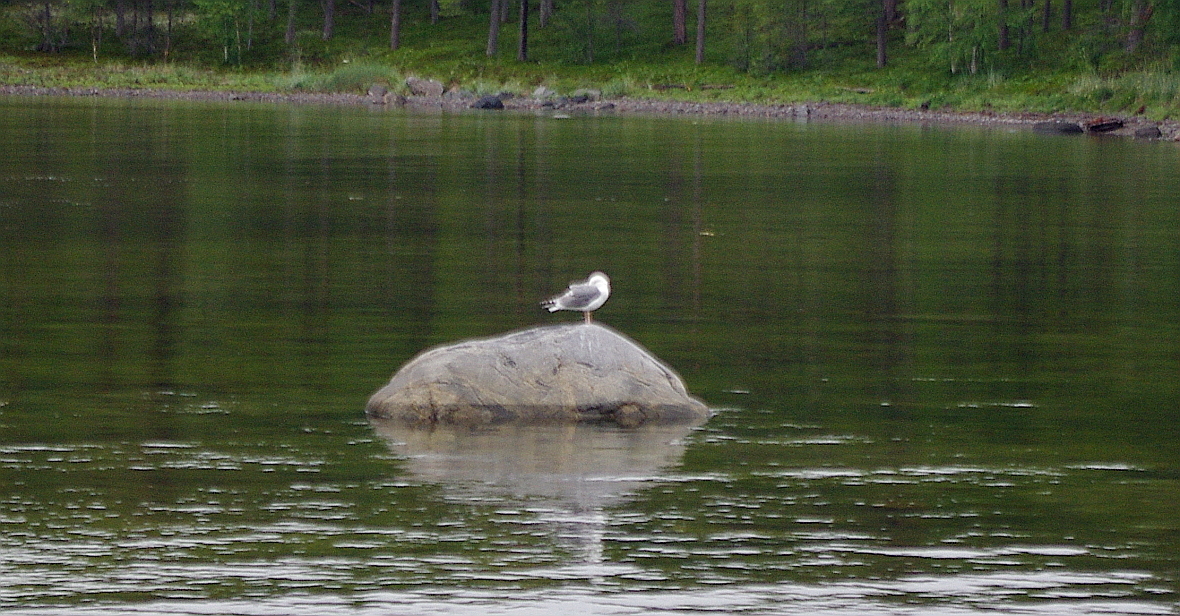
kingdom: Animalia
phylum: Chordata
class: Aves
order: Charadriiformes
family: Laridae
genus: Larus
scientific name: Larus argentatus
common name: Herring gull
